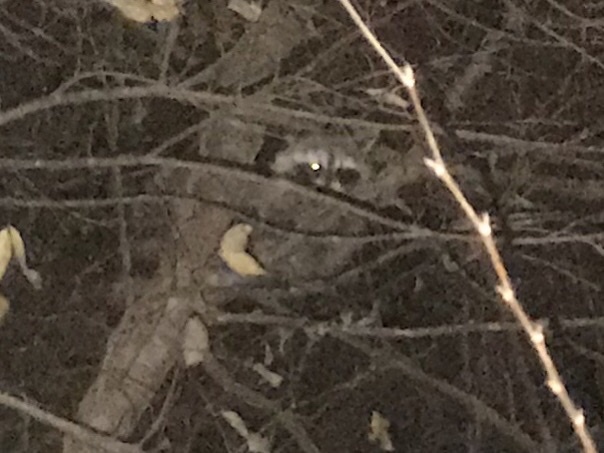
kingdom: Animalia
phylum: Chordata
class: Mammalia
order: Carnivora
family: Procyonidae
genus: Procyon
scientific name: Procyon lotor
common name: Raccoon
